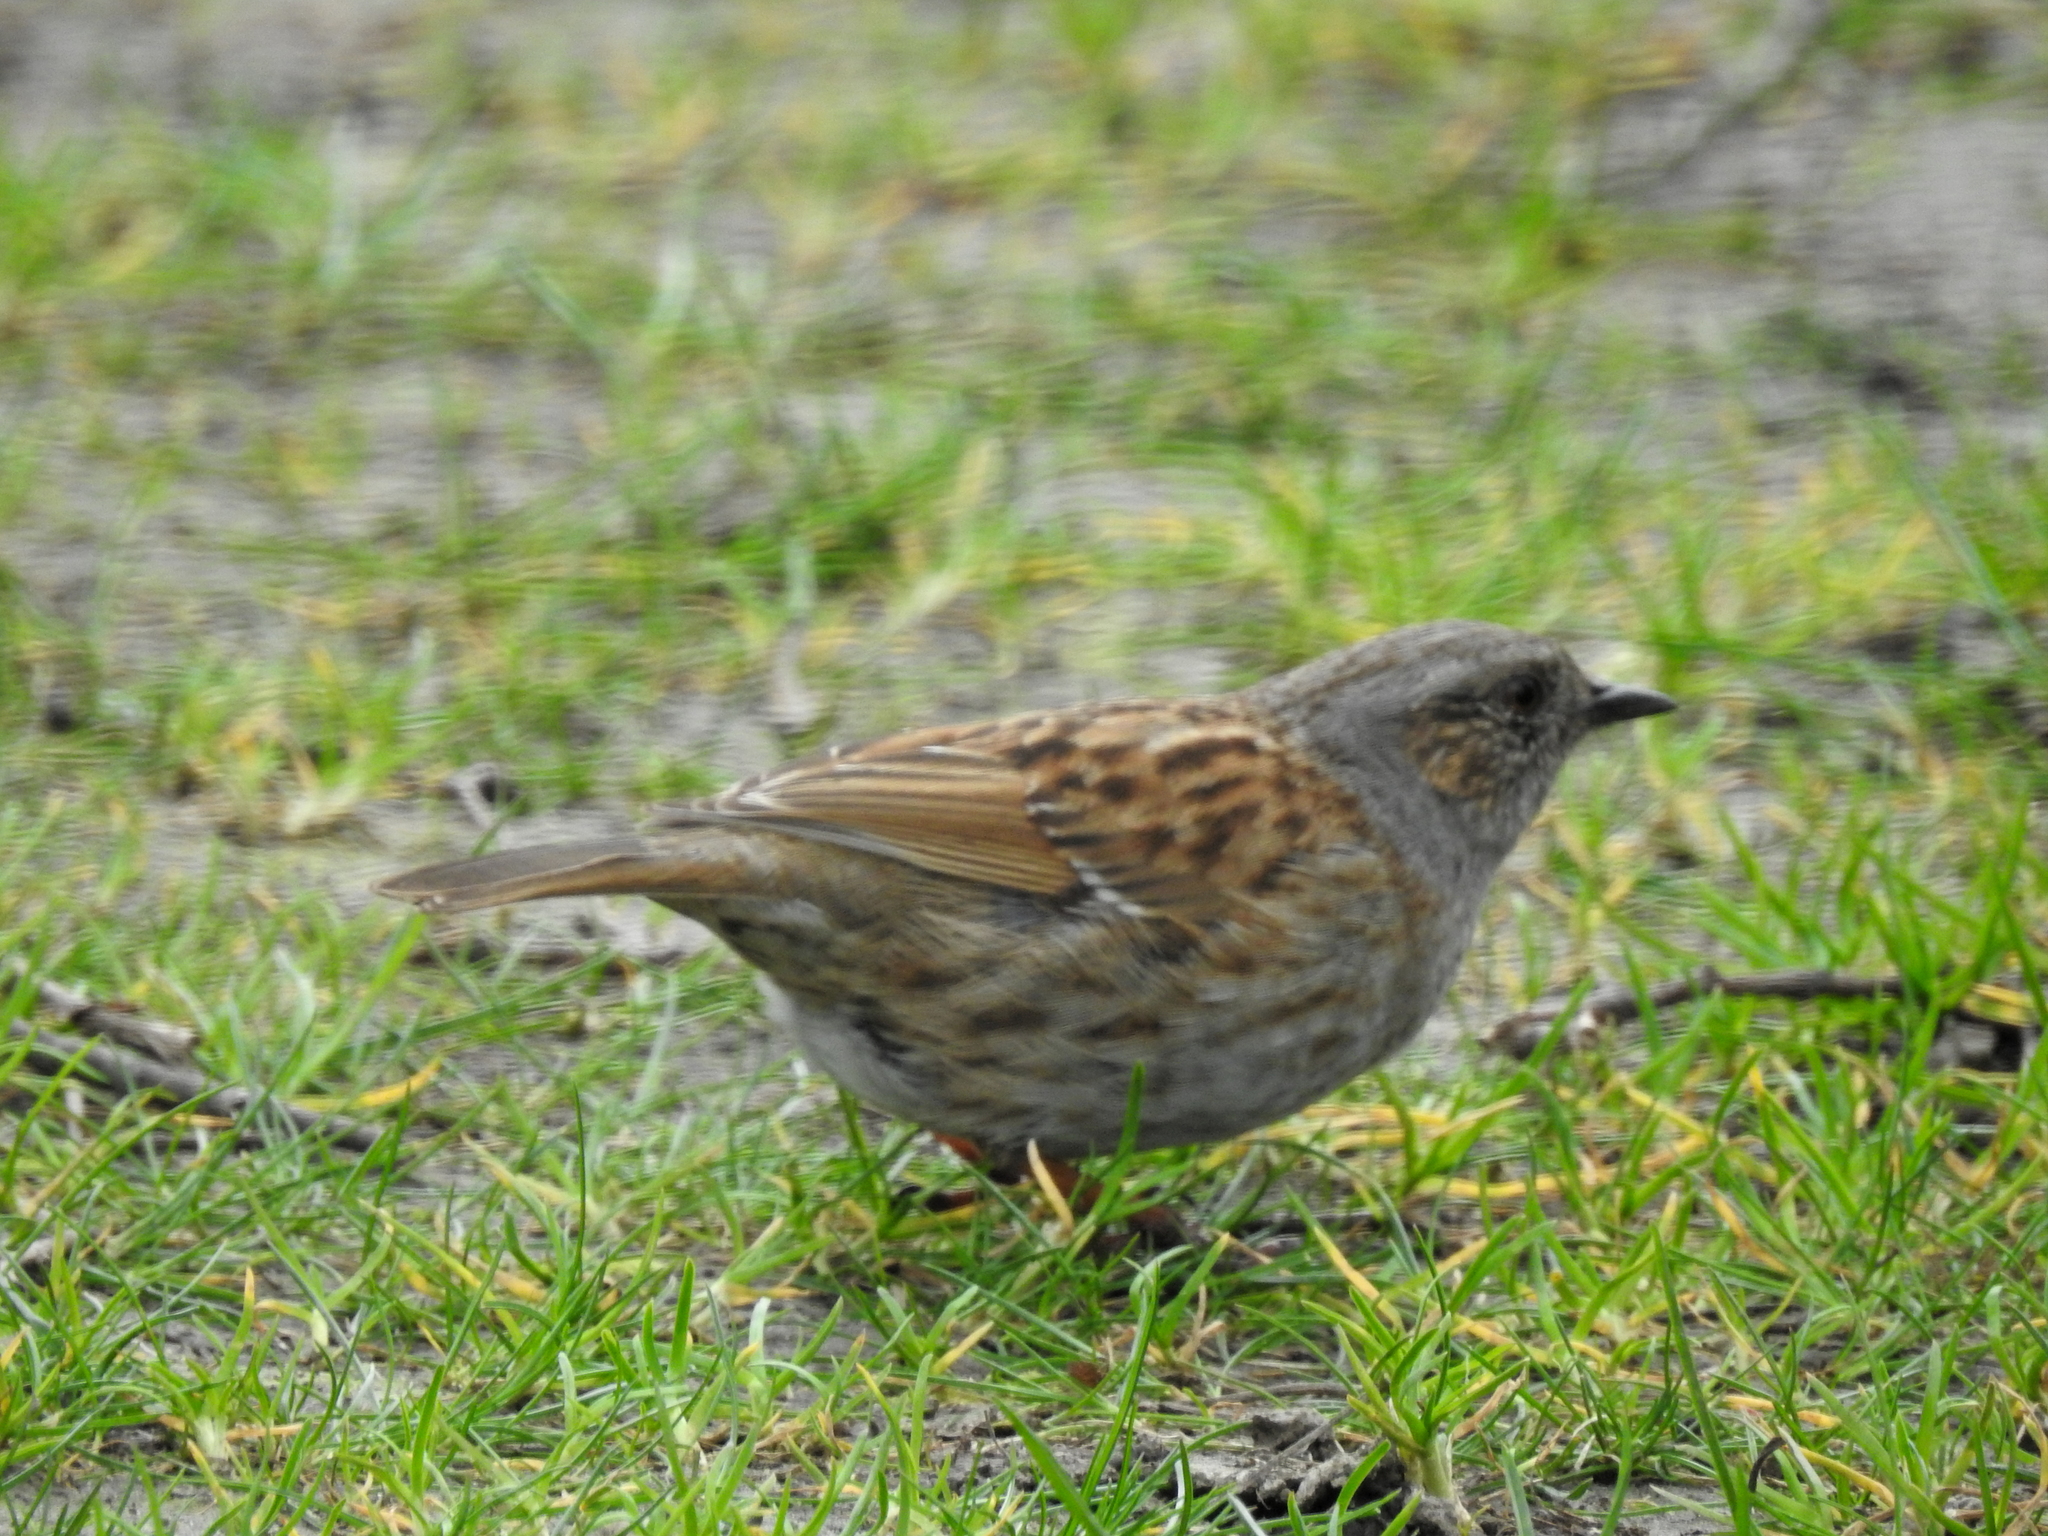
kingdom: Animalia
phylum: Chordata
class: Aves
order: Passeriformes
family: Prunellidae
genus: Prunella
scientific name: Prunella modularis
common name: Dunnock
